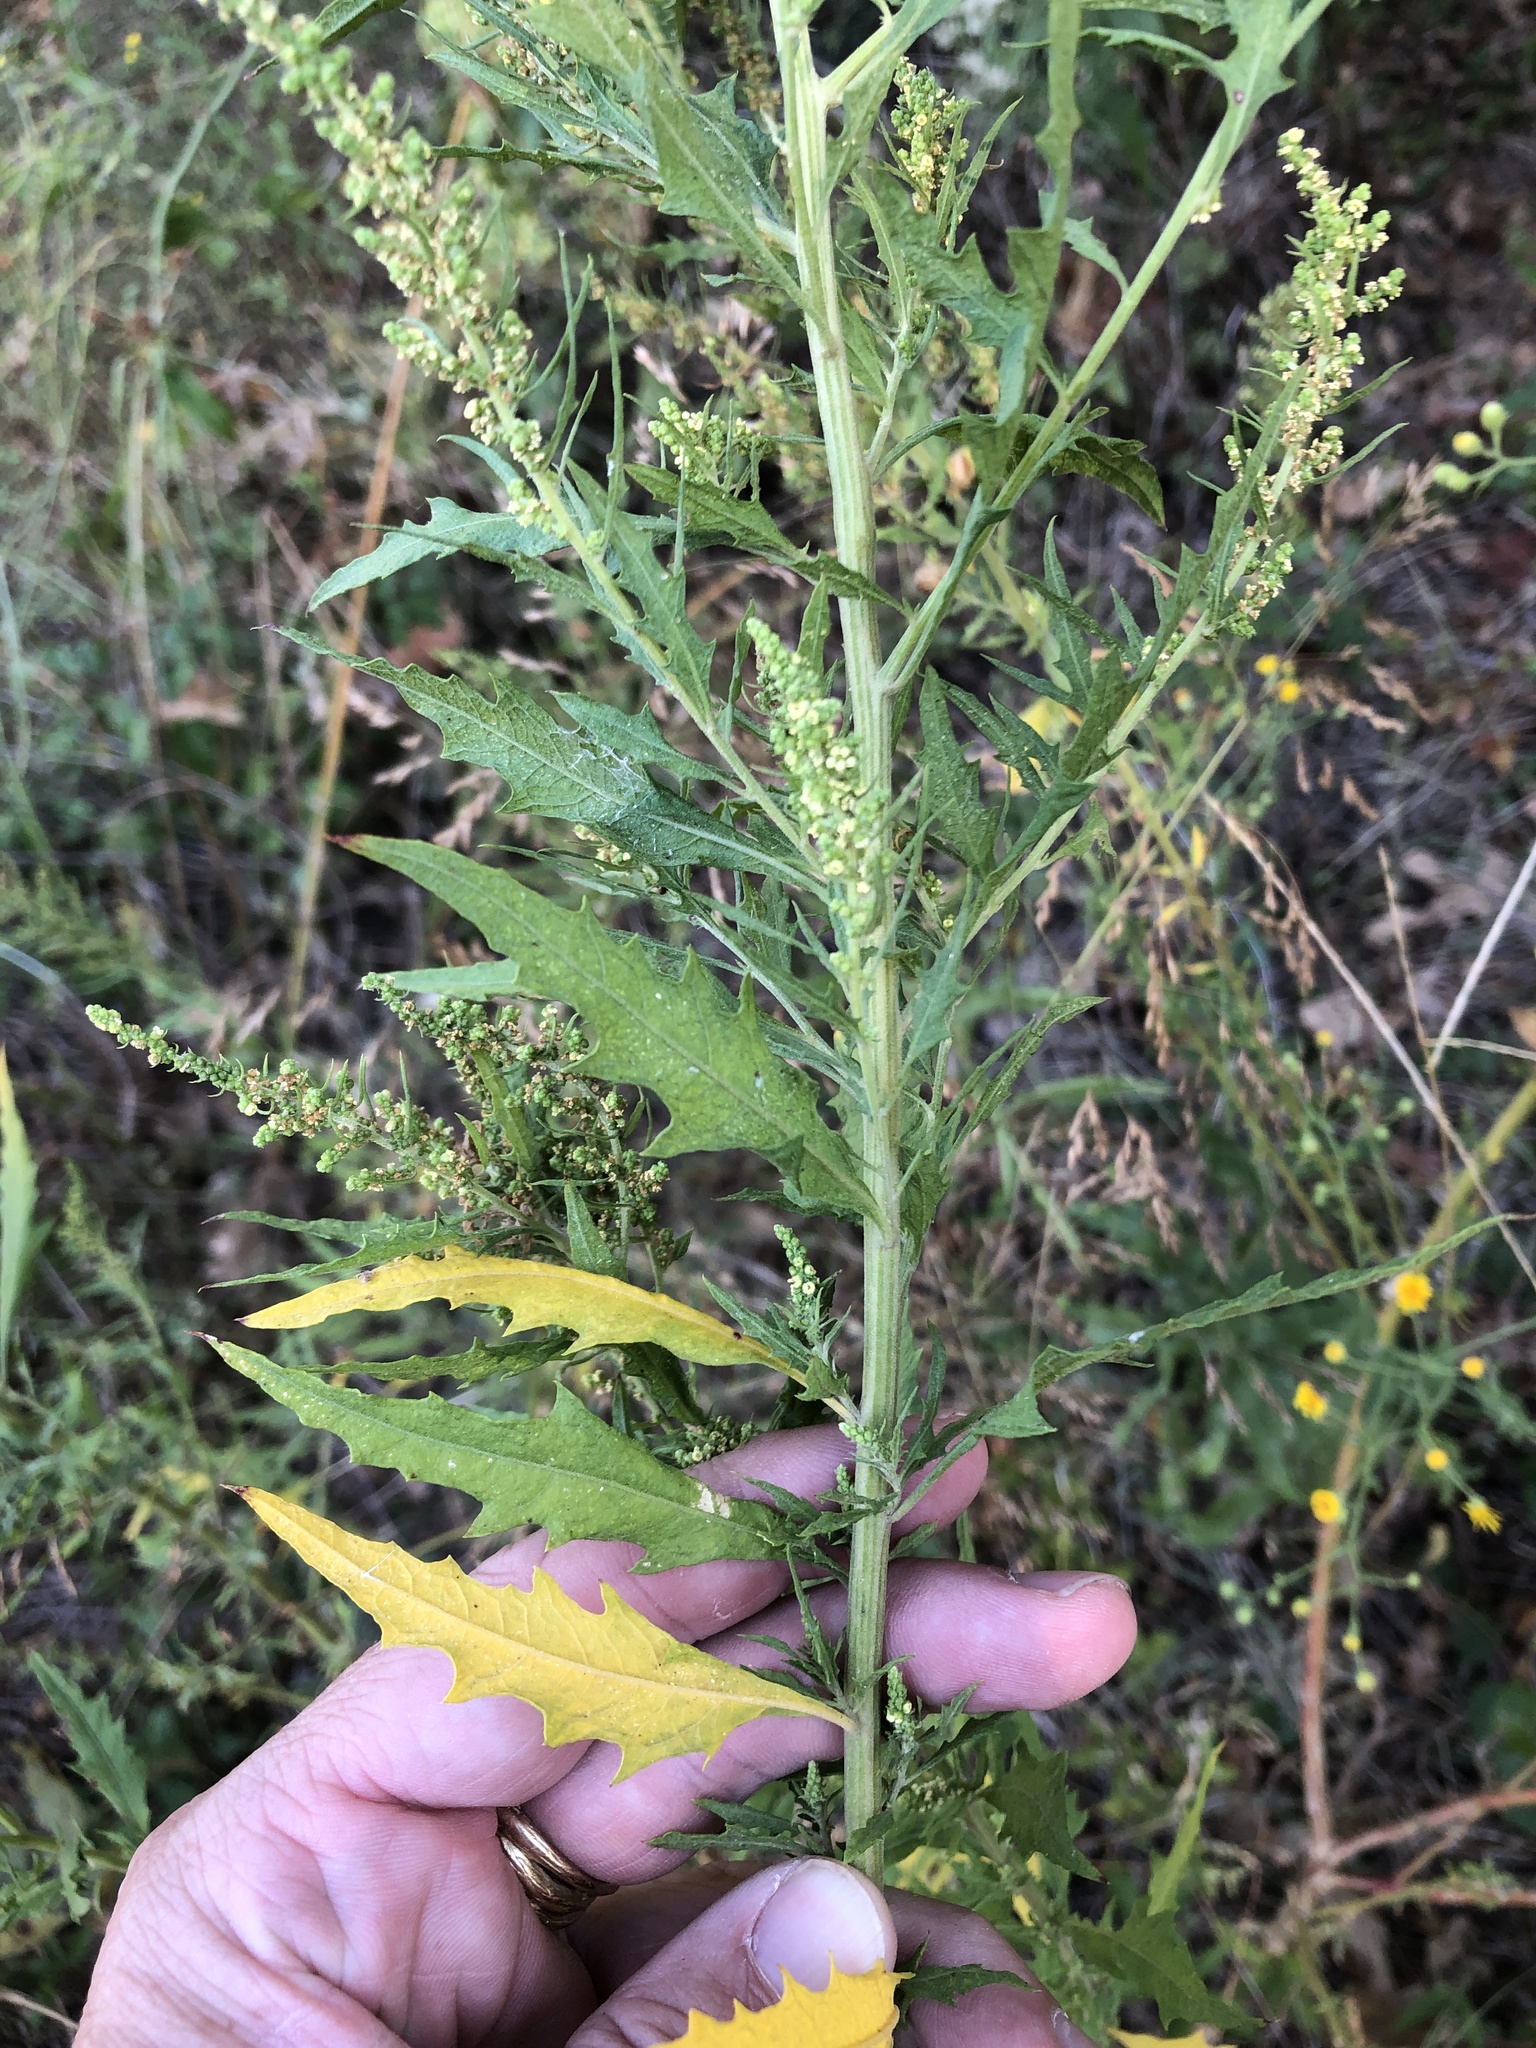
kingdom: Plantae
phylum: Tracheophyta
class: Magnoliopsida
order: Caryophyllales
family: Amaranthaceae
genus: Dysphania
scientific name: Dysphania ambrosioides
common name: Wormseed
